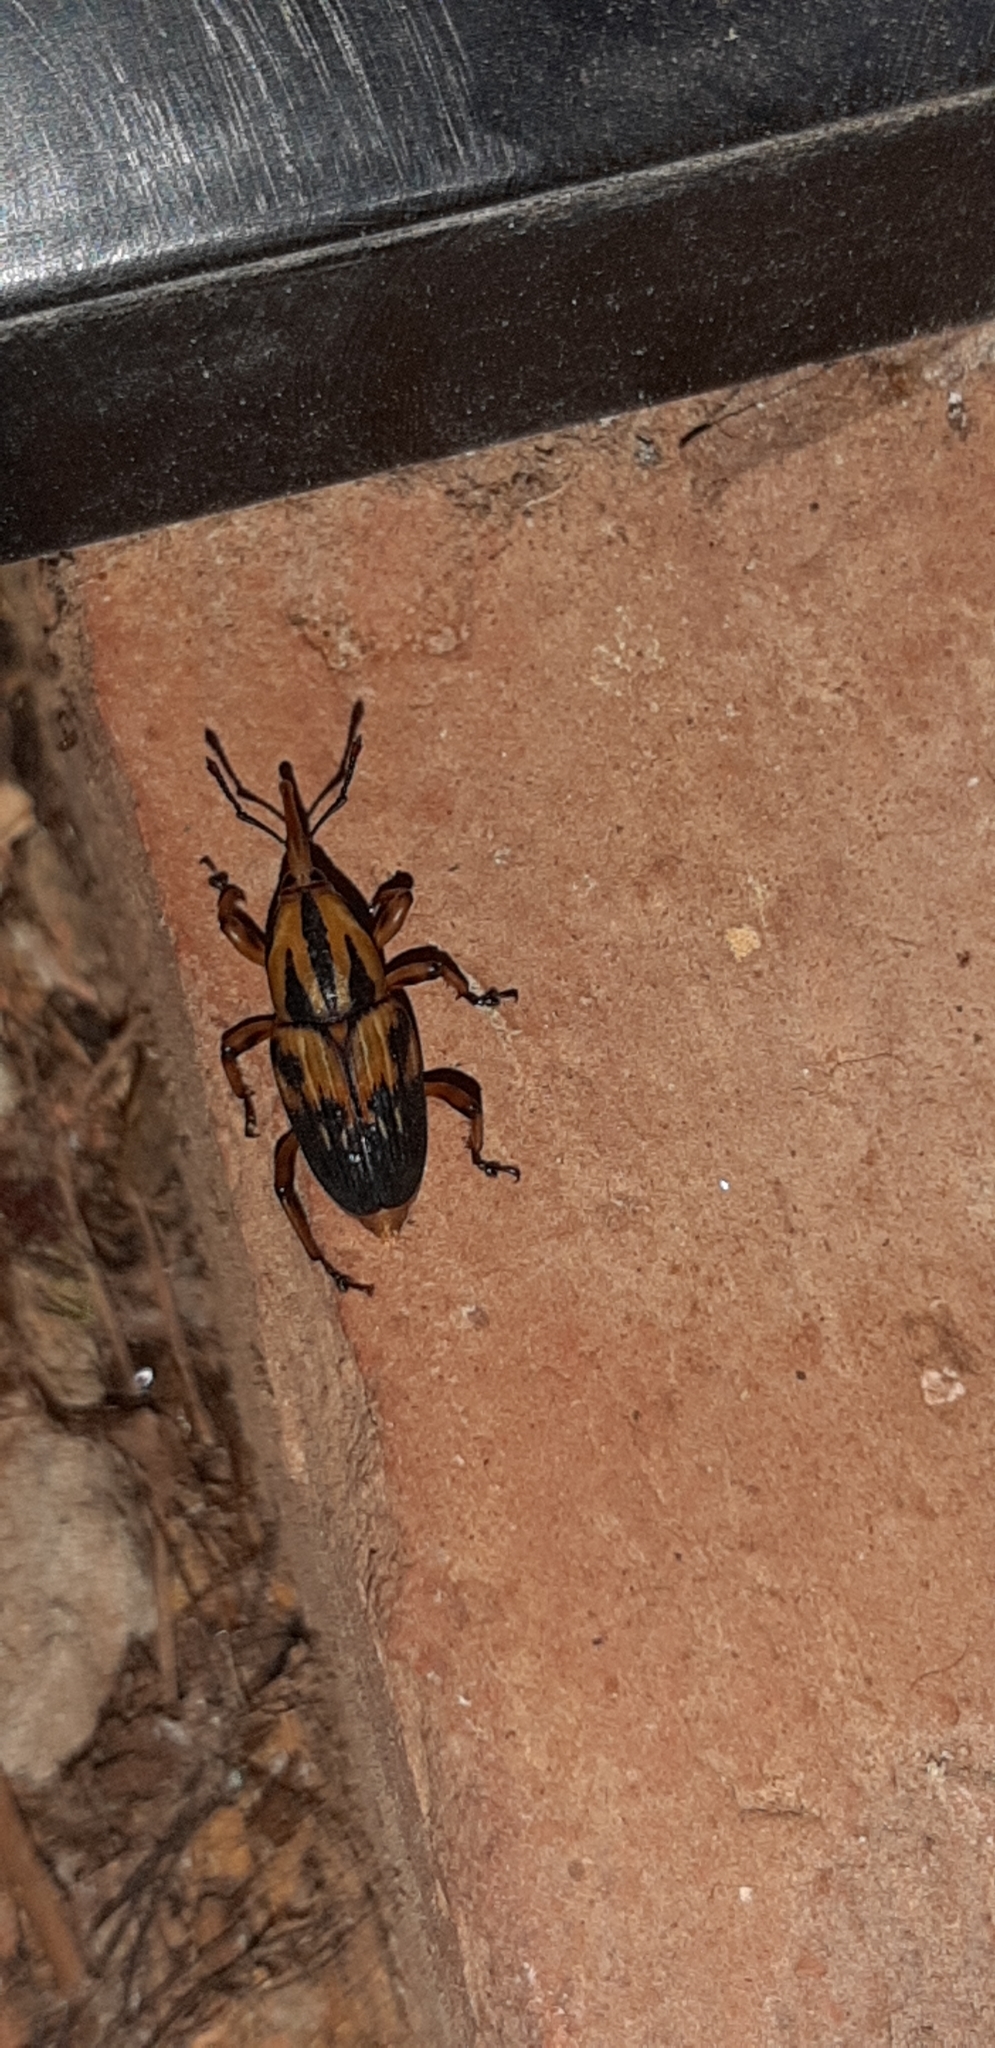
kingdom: Animalia
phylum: Arthropoda
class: Insecta
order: Coleoptera
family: Dryophthoridae
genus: Metamasius
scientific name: Metamasius hemipterus
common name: Weevil
